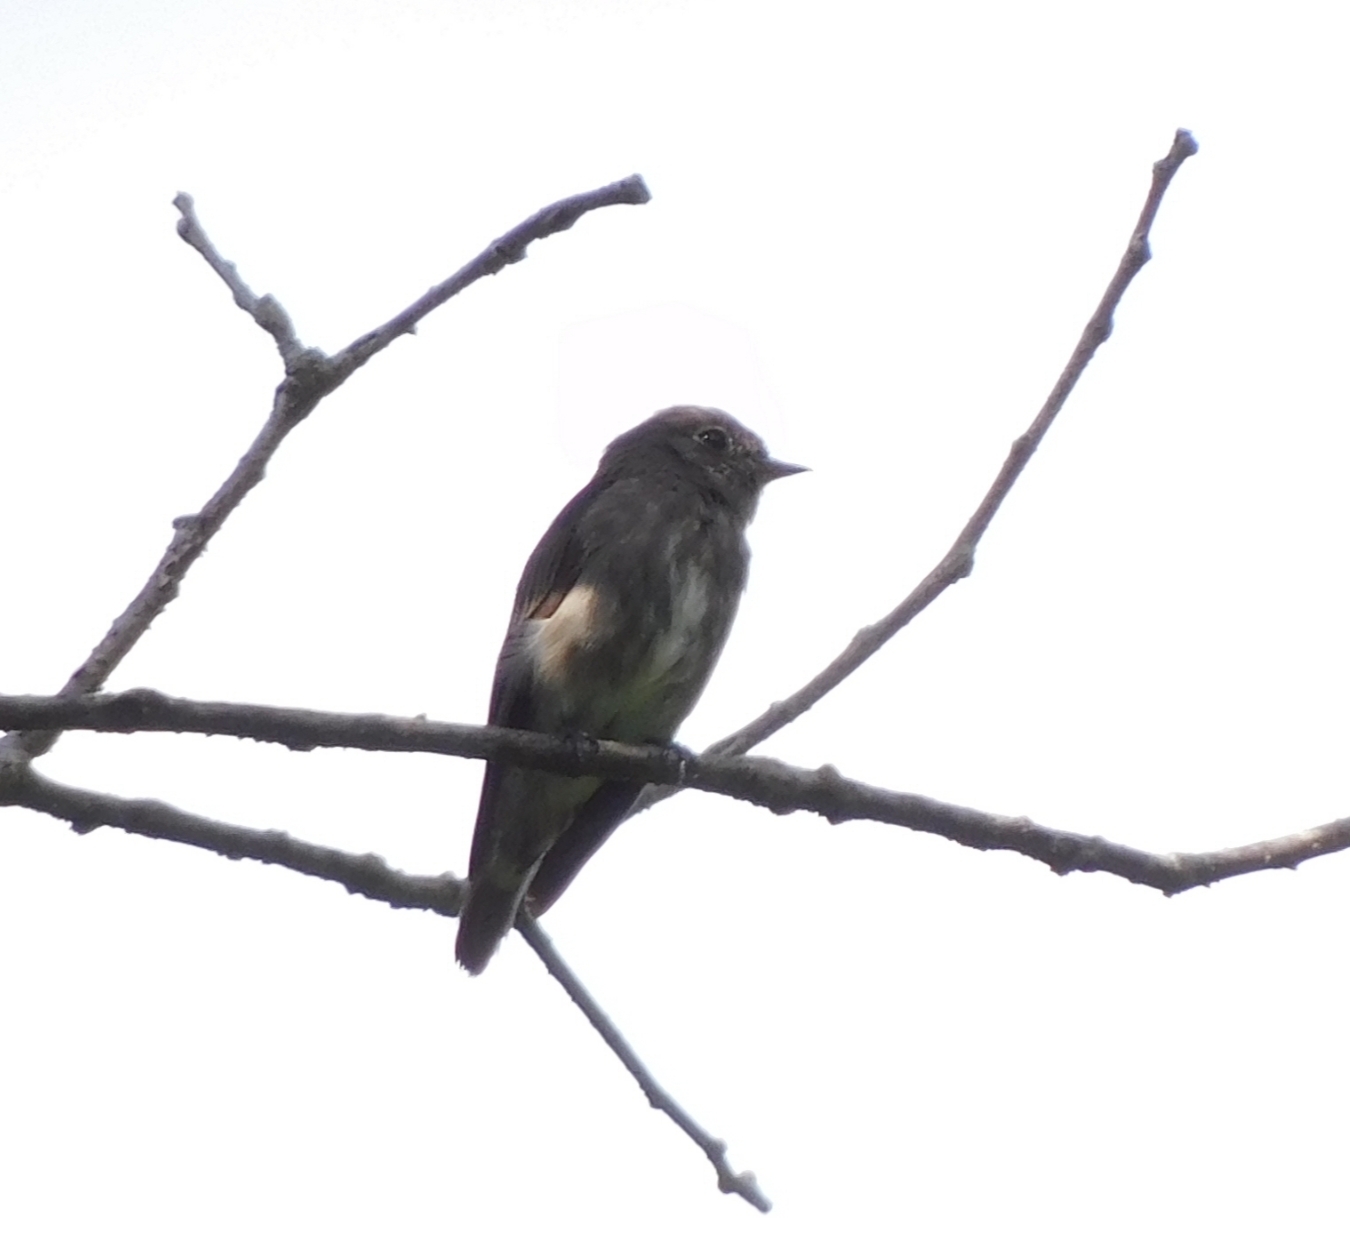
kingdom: Animalia
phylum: Chordata
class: Aves
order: Passeriformes
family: Muscicapidae
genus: Muscicapa
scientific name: Muscicapa sibirica
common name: Dark-sided flycatcher
